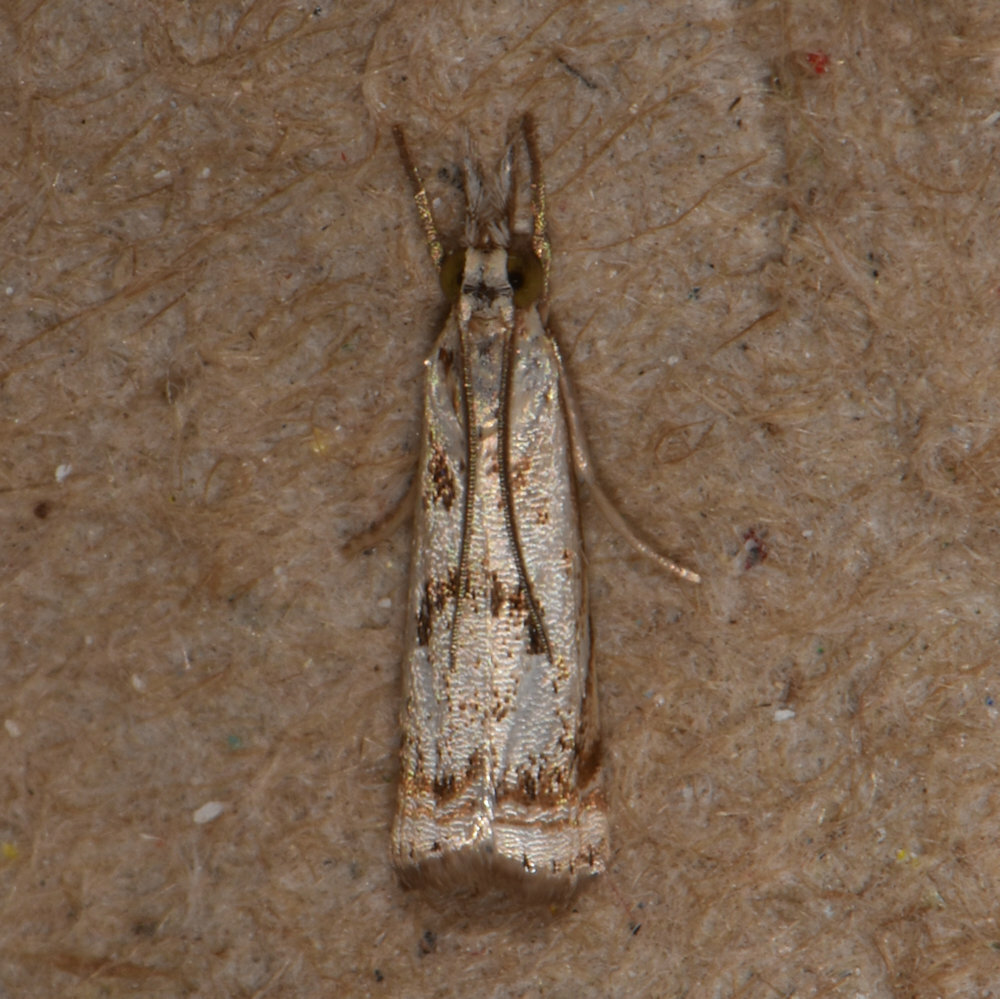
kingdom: Animalia
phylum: Arthropoda
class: Insecta
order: Lepidoptera
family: Crambidae
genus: Microcrambus
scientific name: Microcrambus elegans
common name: Elegant grass-veneer
